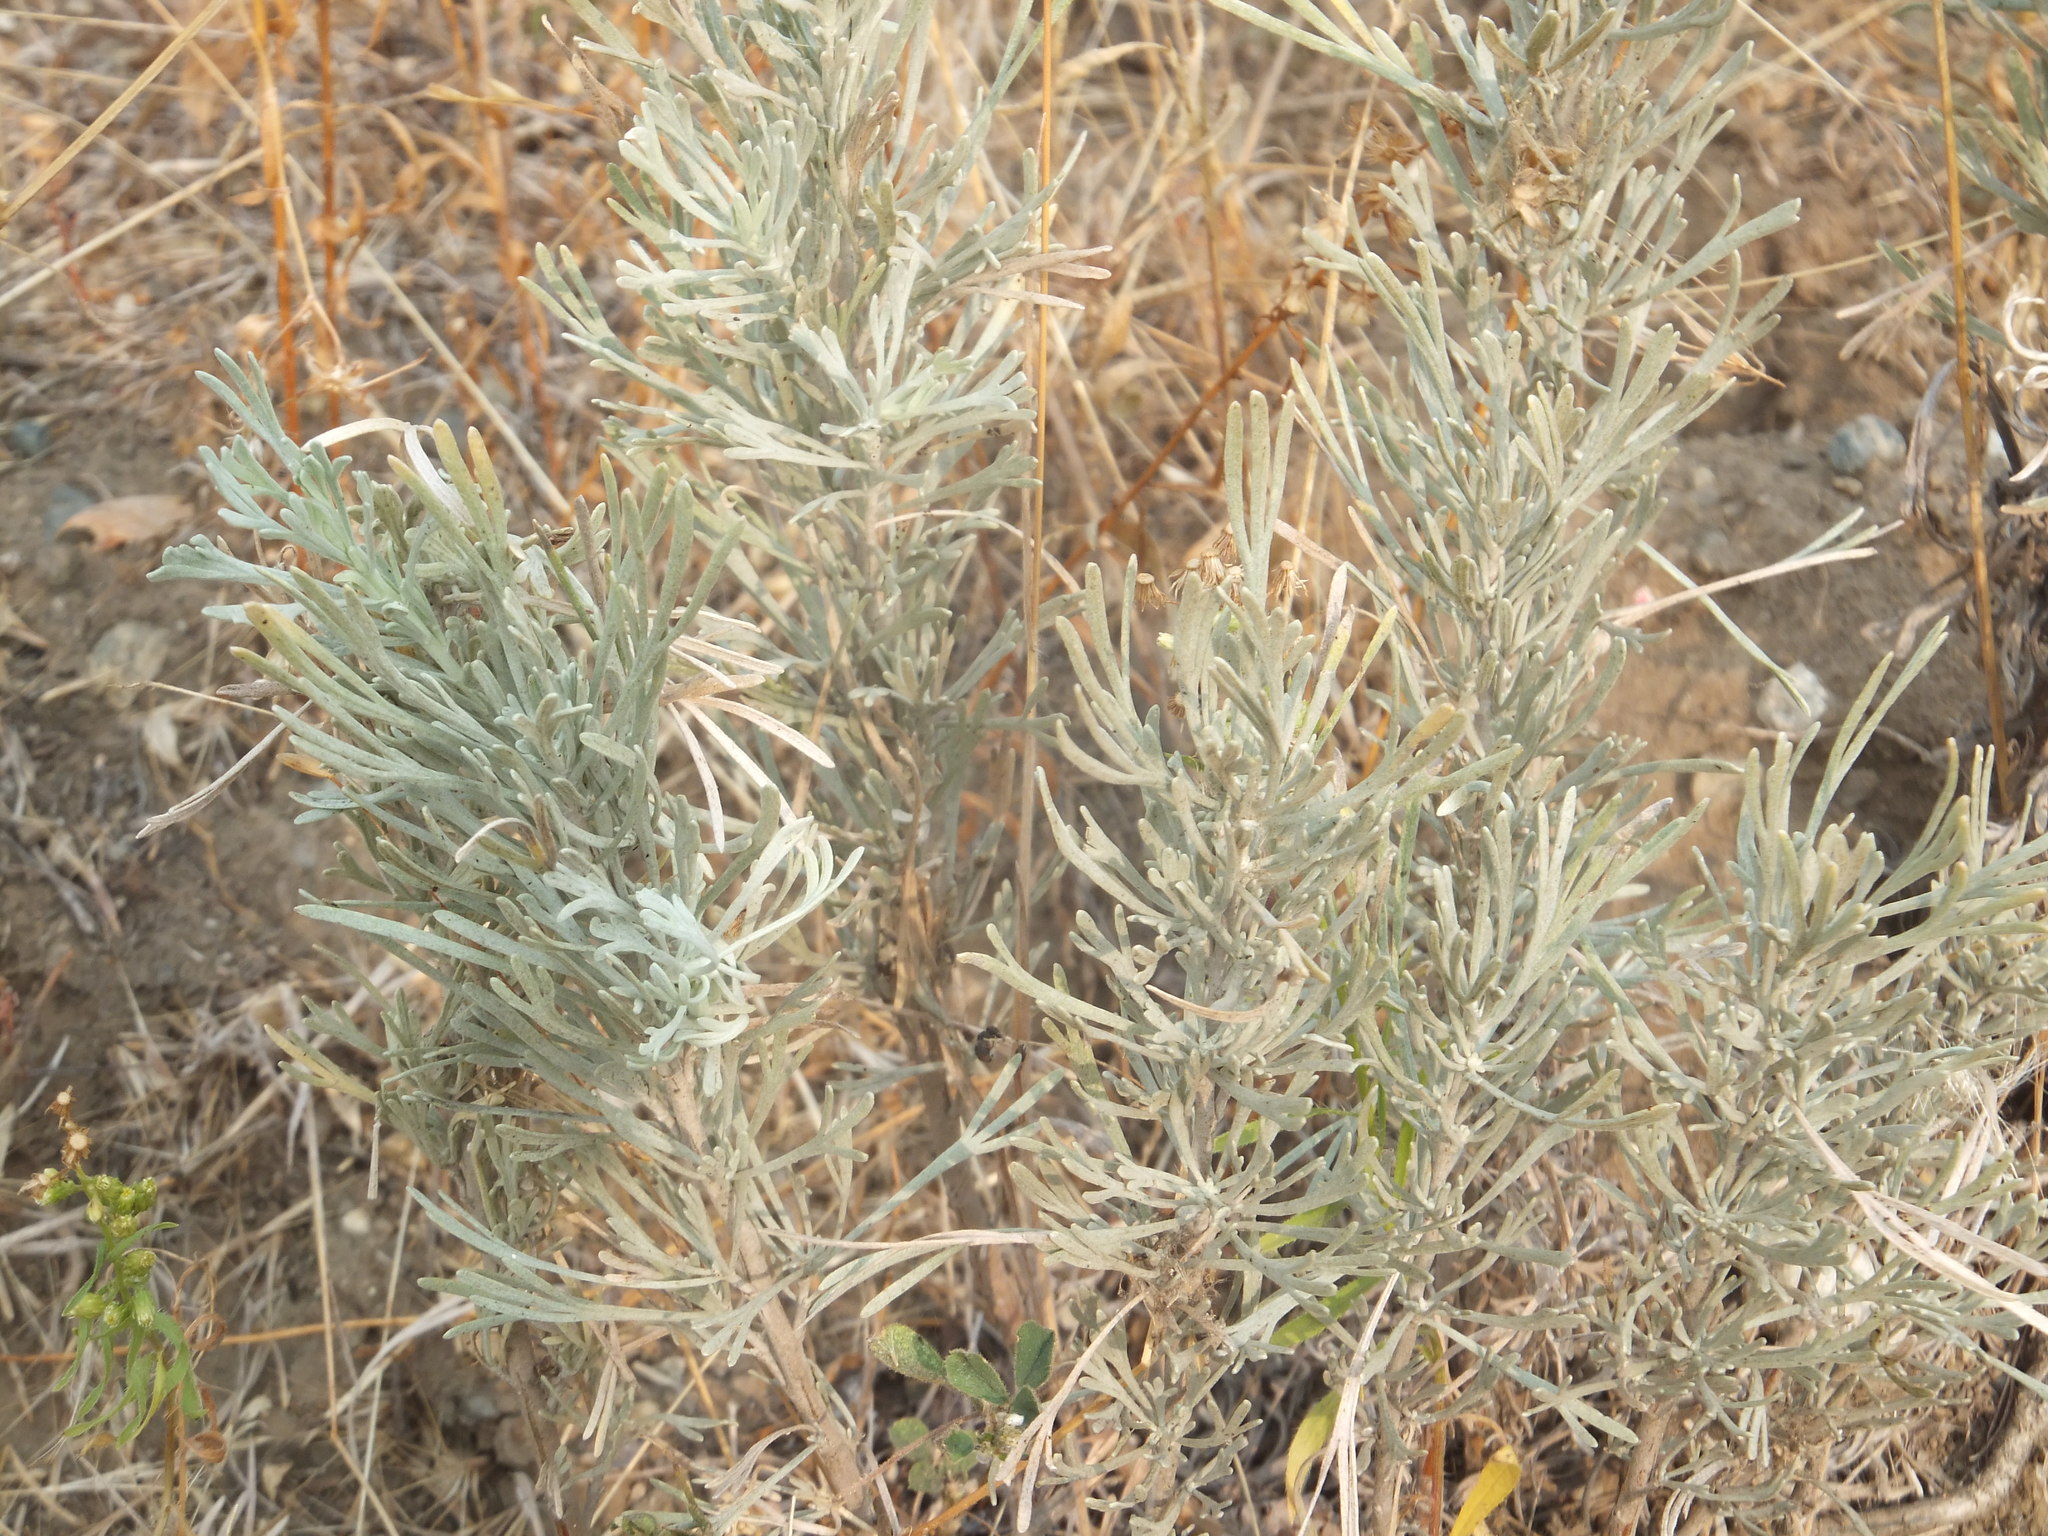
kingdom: Plantae
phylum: Tracheophyta
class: Magnoliopsida
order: Asterales
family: Asteraceae
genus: Artemisia
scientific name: Artemisia tripartita
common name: Three-tip sagebrush
